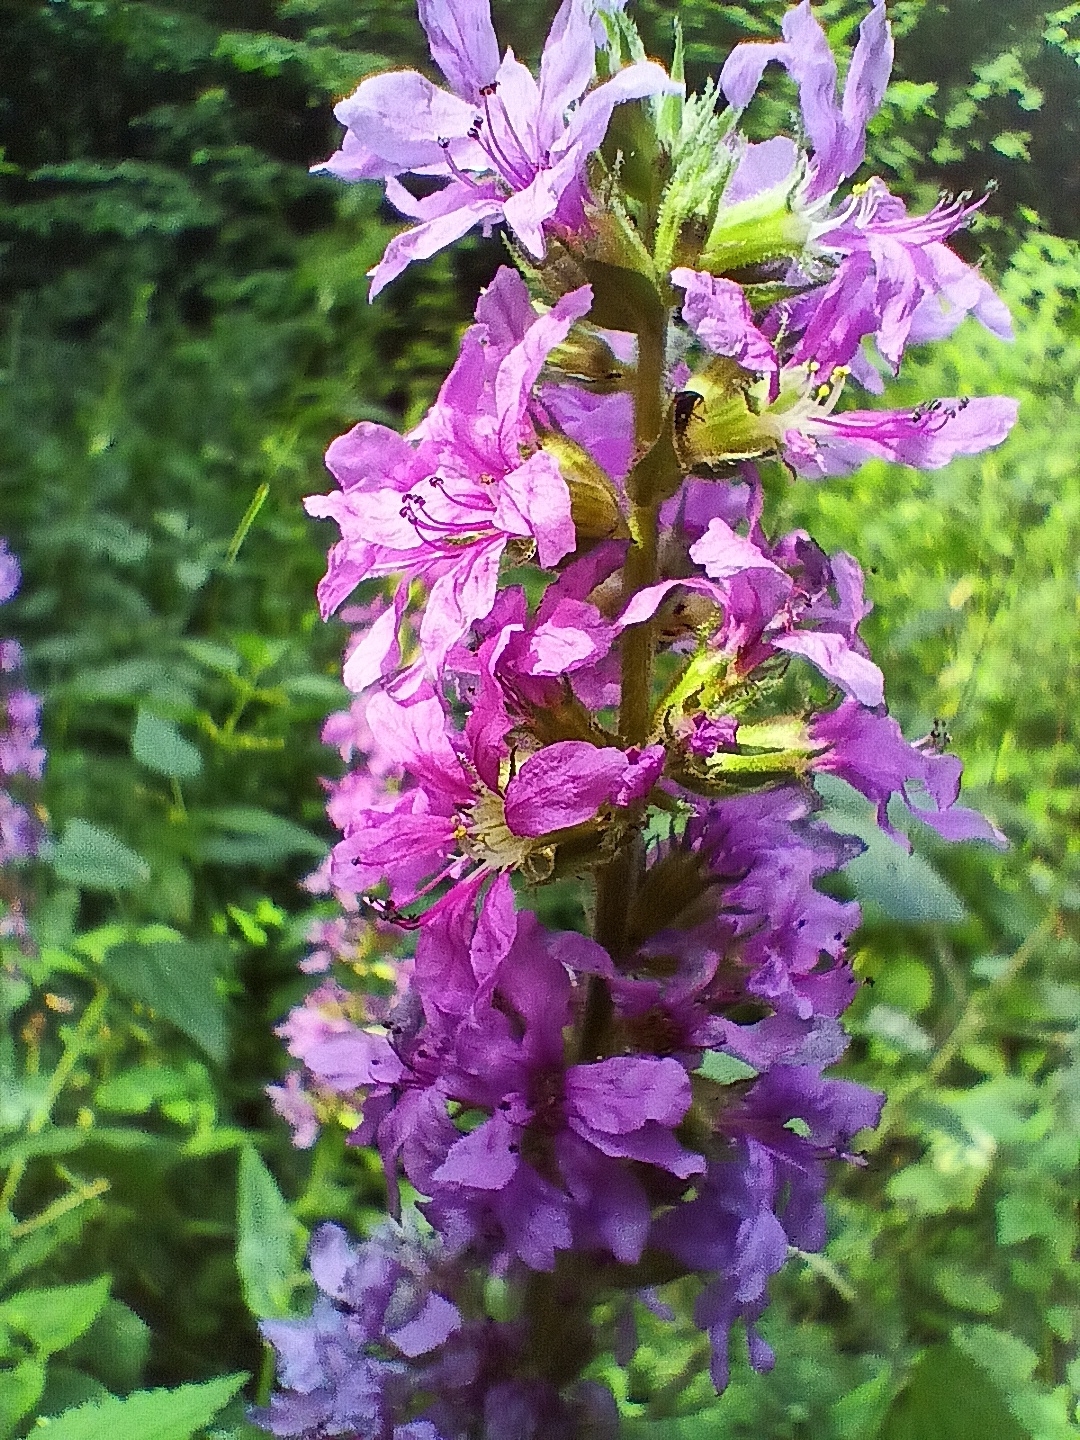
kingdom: Plantae
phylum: Tracheophyta
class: Magnoliopsida
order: Myrtales
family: Lythraceae
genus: Lythrum
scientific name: Lythrum salicaria
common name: Purple loosestrife
